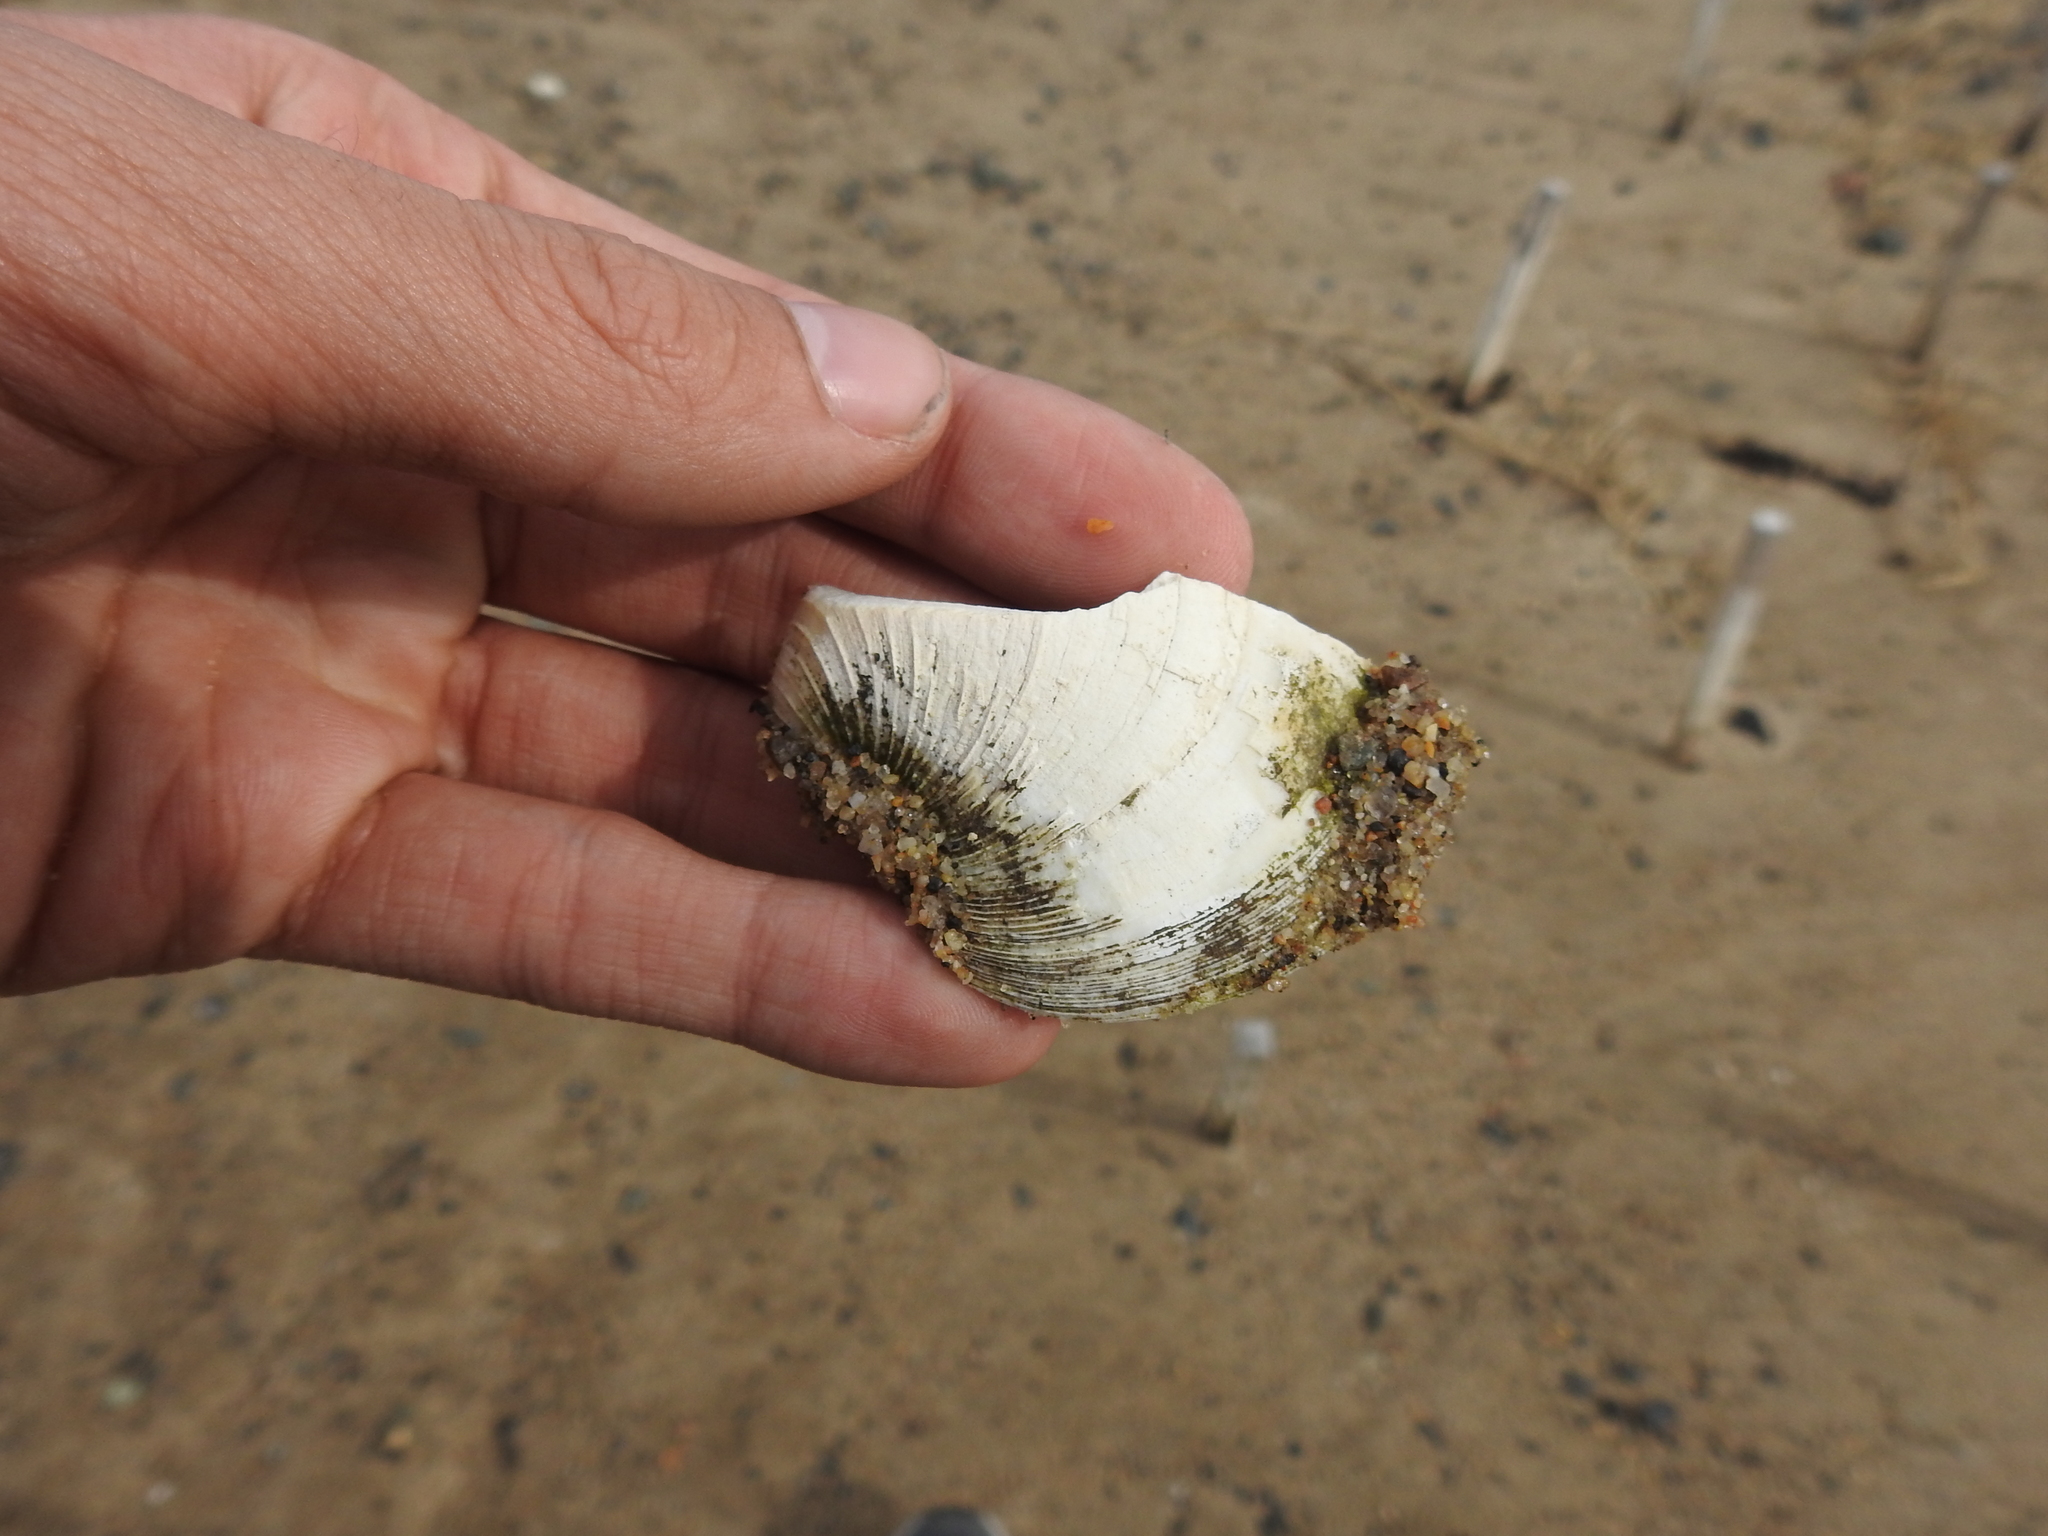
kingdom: Animalia
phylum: Mollusca
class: Bivalvia
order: Venerida
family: Veneridae
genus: Mercenaria
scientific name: Mercenaria mercenaria
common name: American hard-shelled clam
